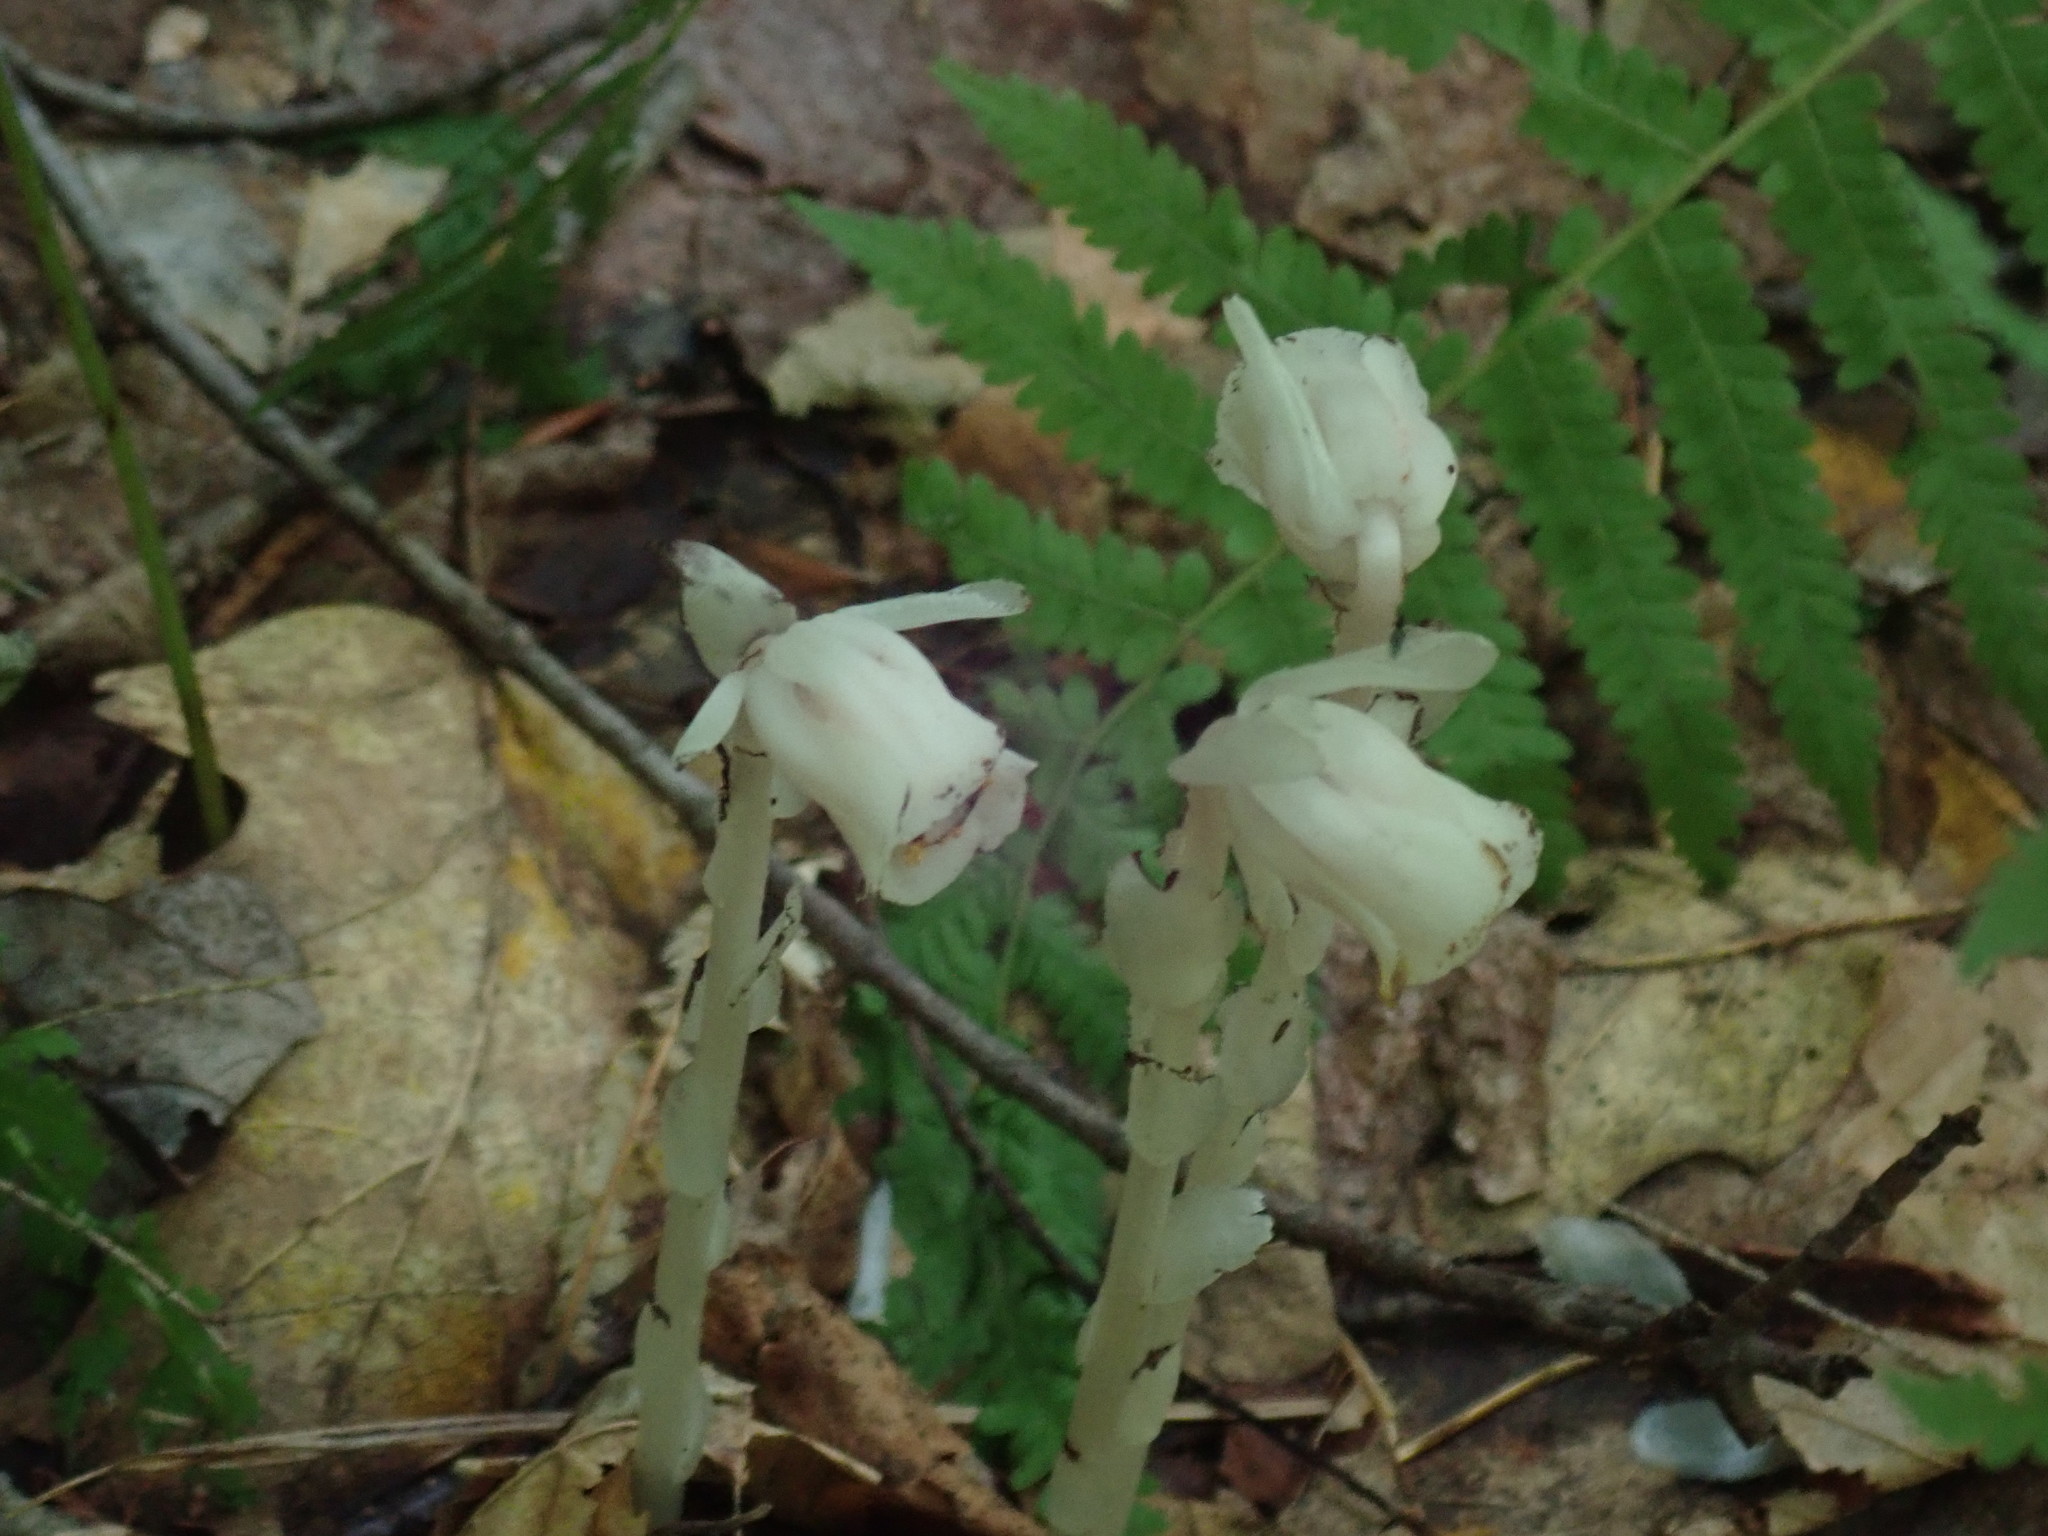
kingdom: Plantae
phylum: Tracheophyta
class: Magnoliopsida
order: Ericales
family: Ericaceae
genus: Monotropa
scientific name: Monotropa uniflora
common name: Convulsion root
